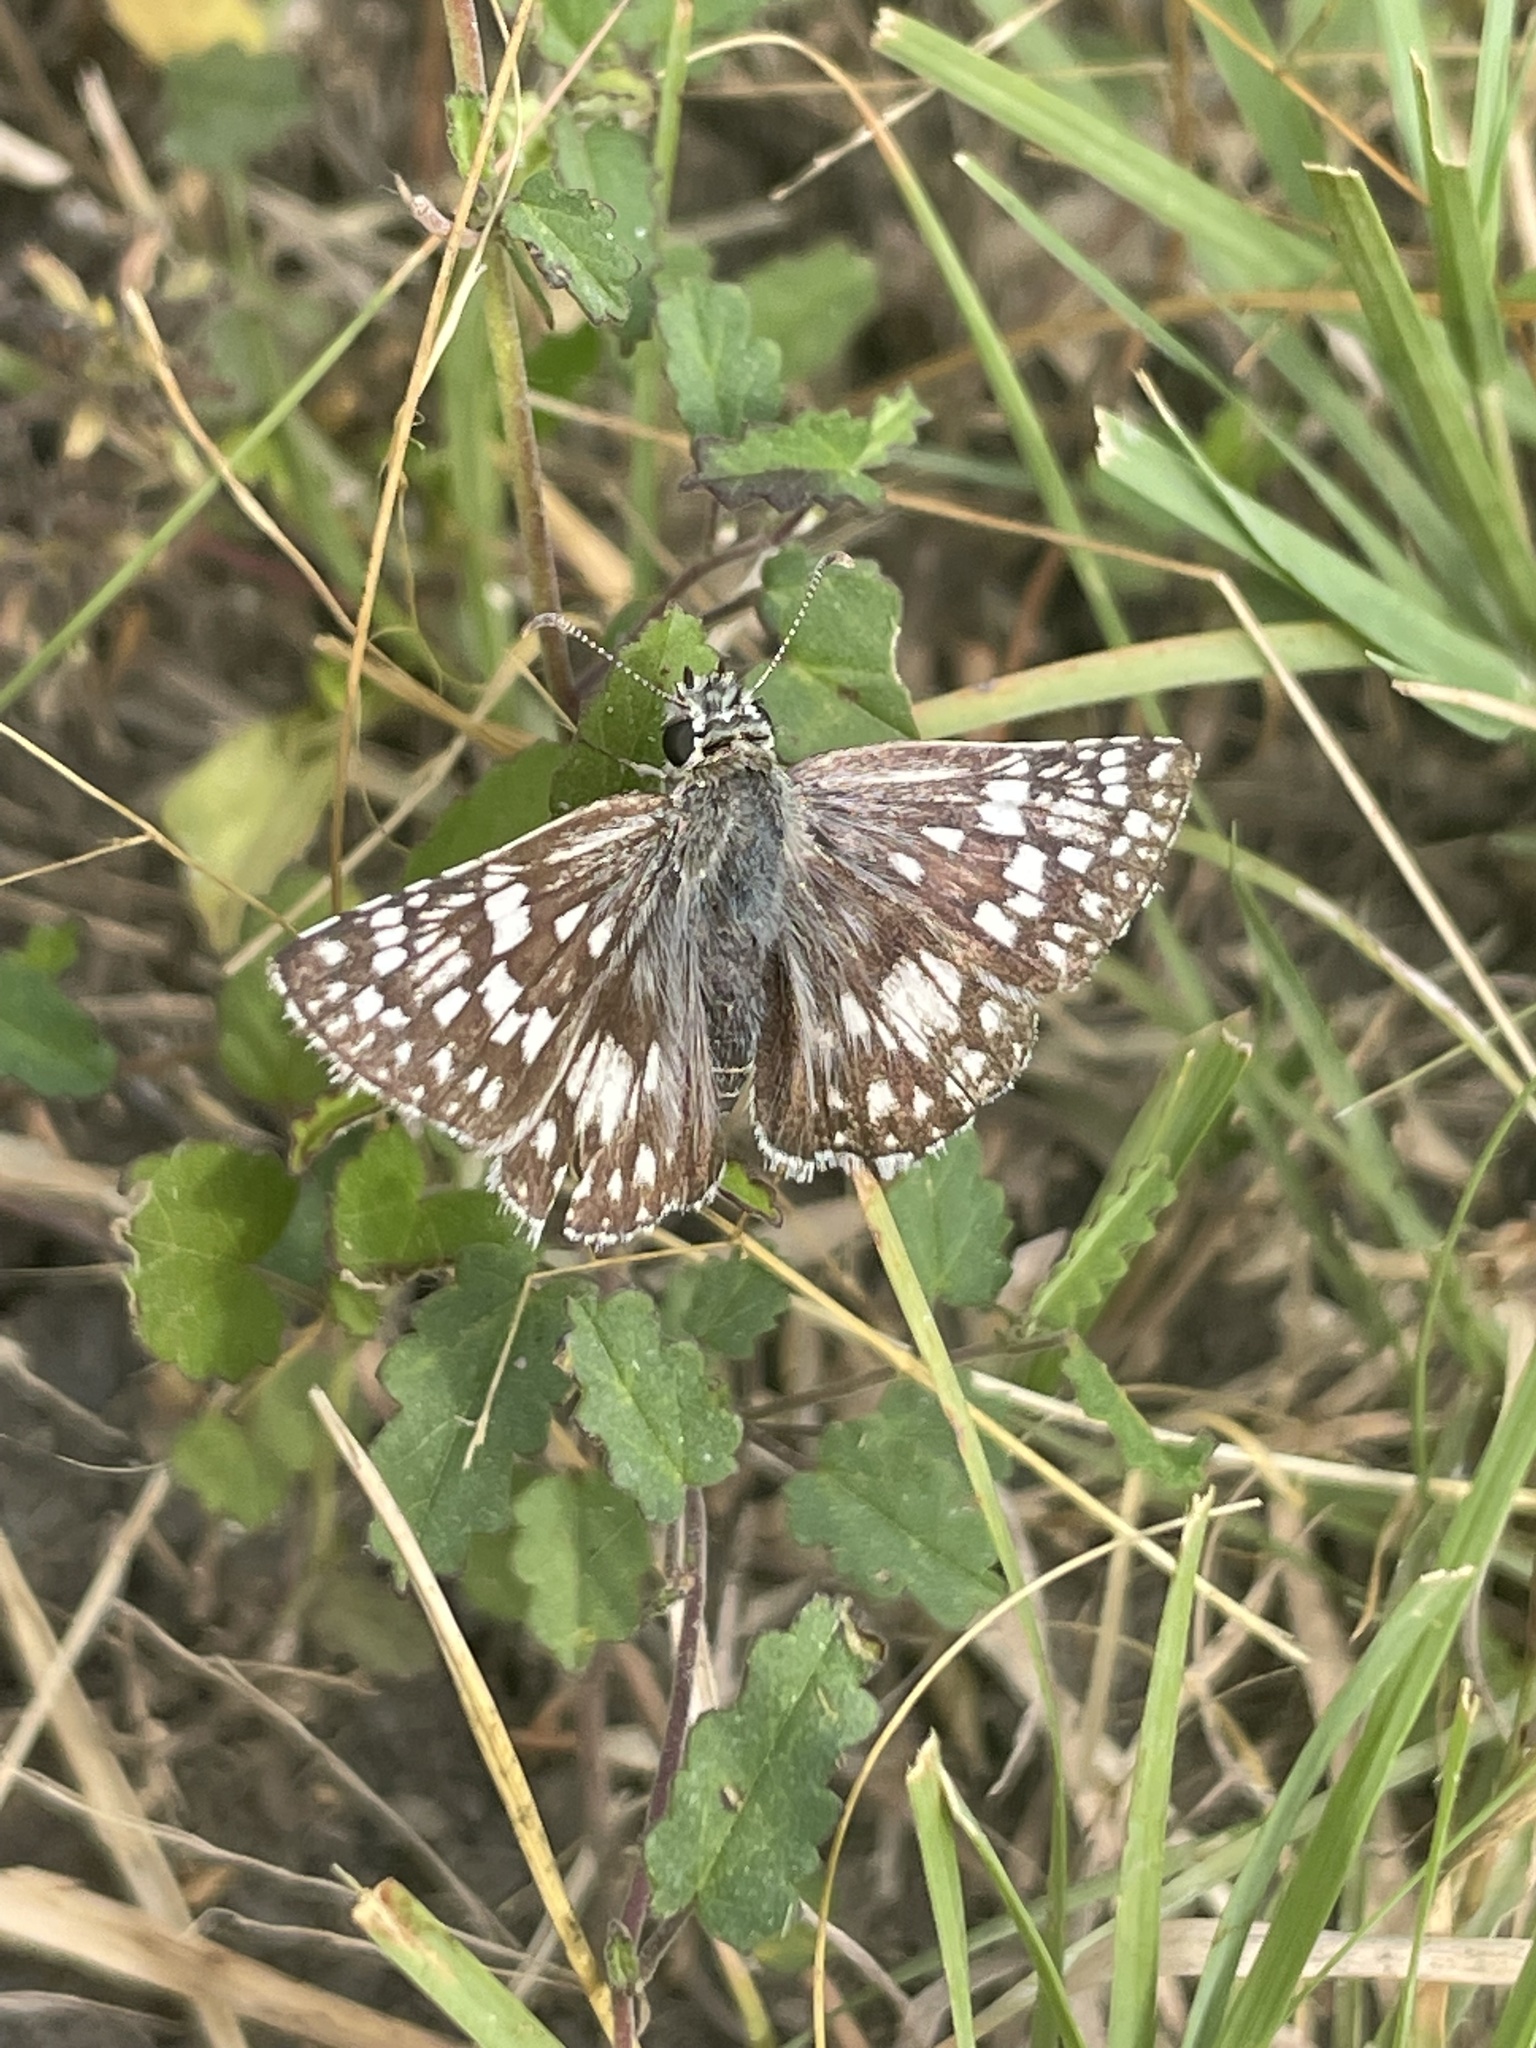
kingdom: Animalia
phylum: Arthropoda
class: Insecta
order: Lepidoptera
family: Hesperiidae
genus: Burnsius
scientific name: Burnsius
